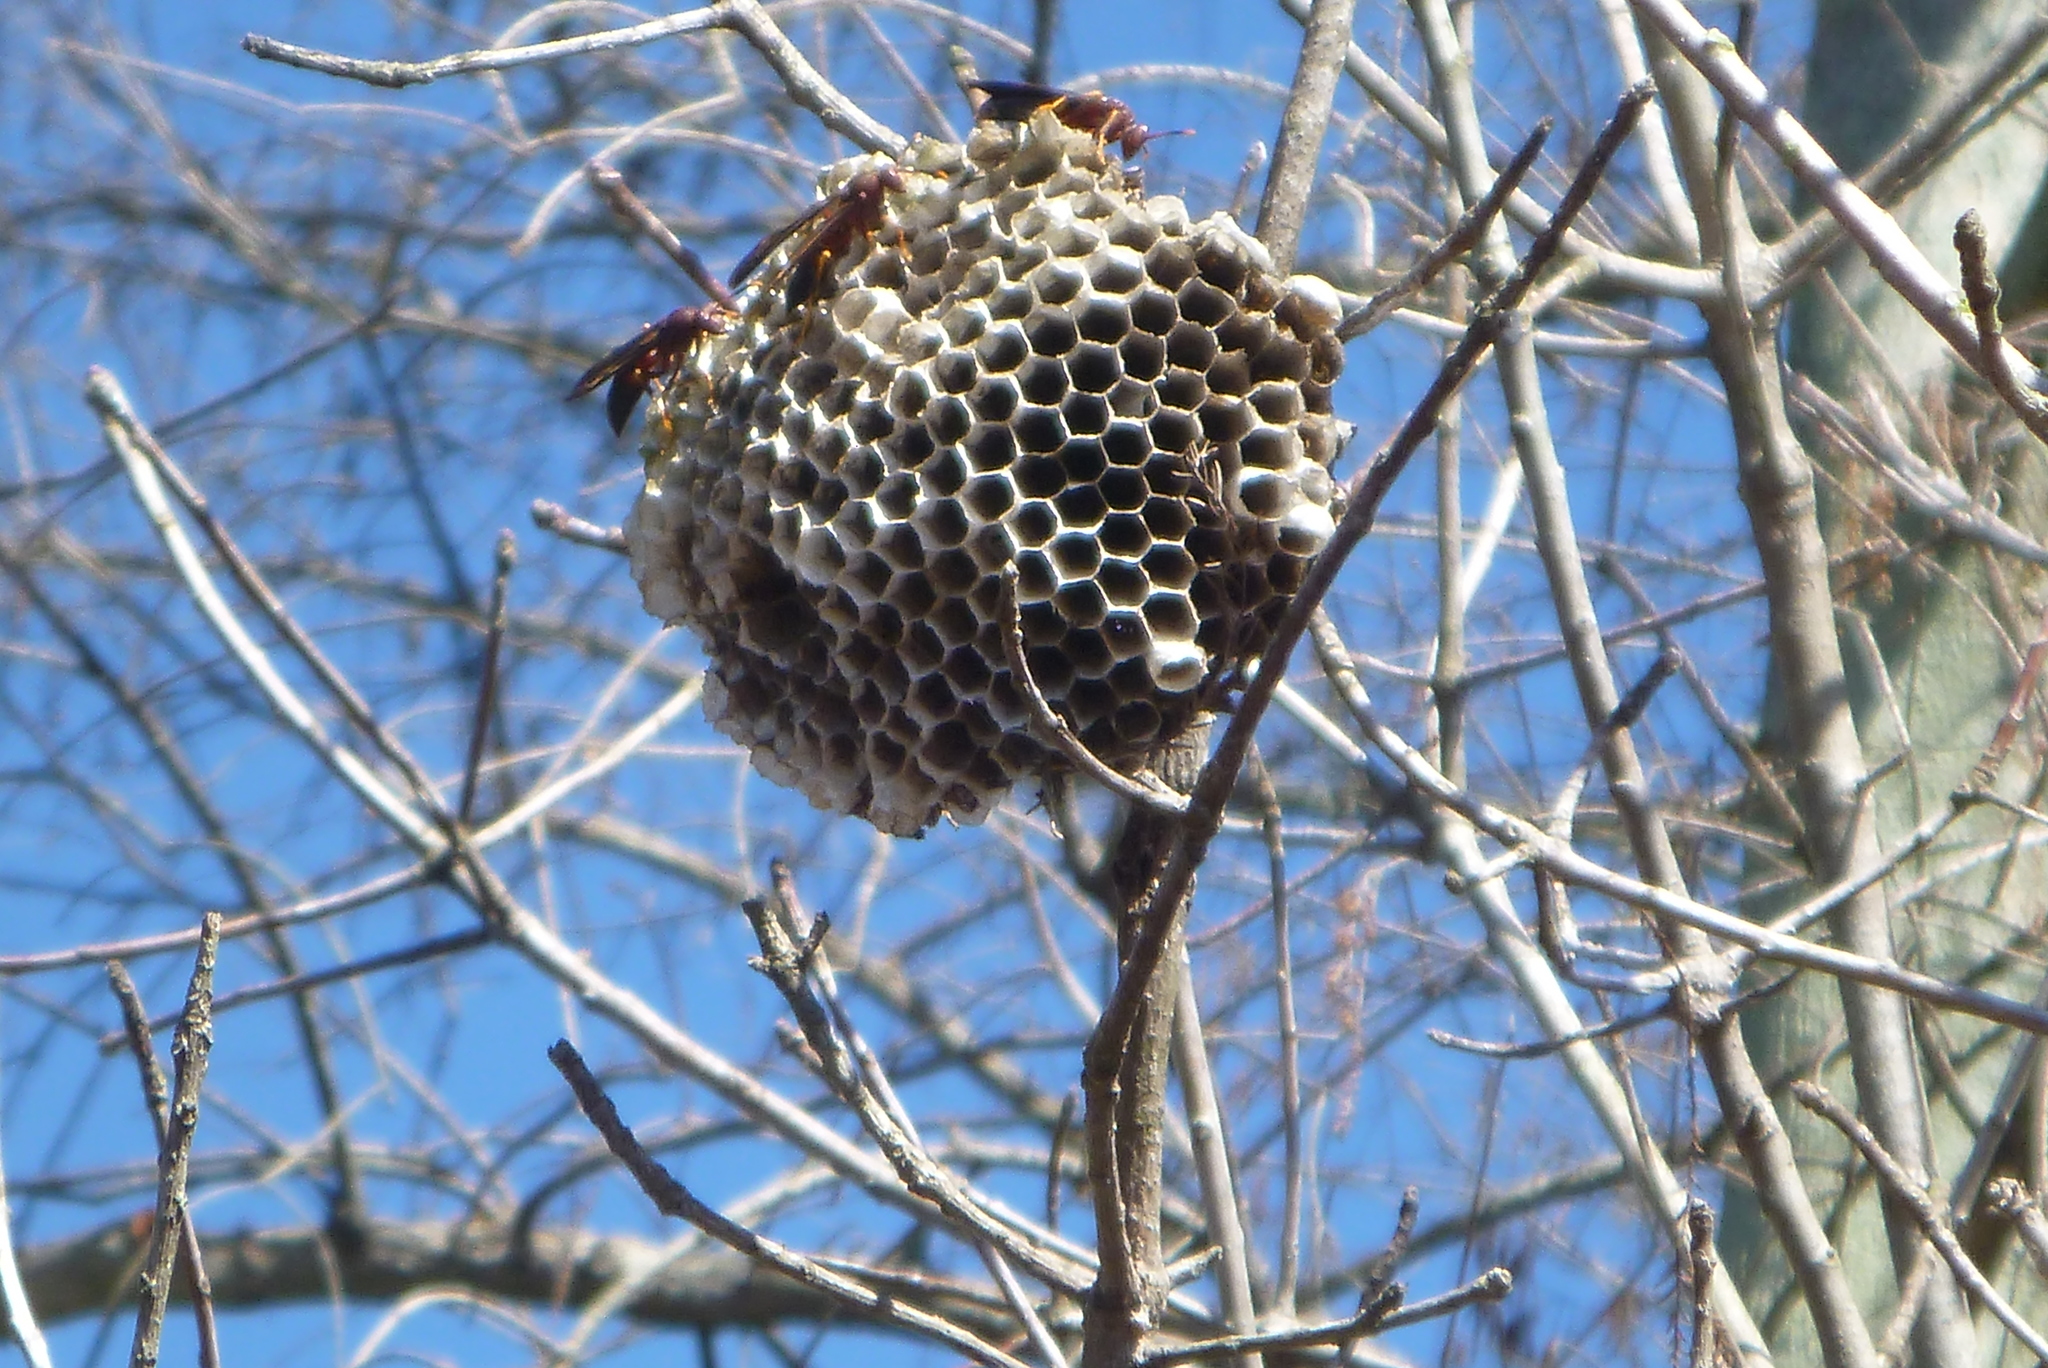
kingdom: Animalia
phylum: Arthropoda
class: Insecta
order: Hymenoptera
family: Eumenidae
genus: Polistes
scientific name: Polistes annularis
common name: Ringed paper wasp
